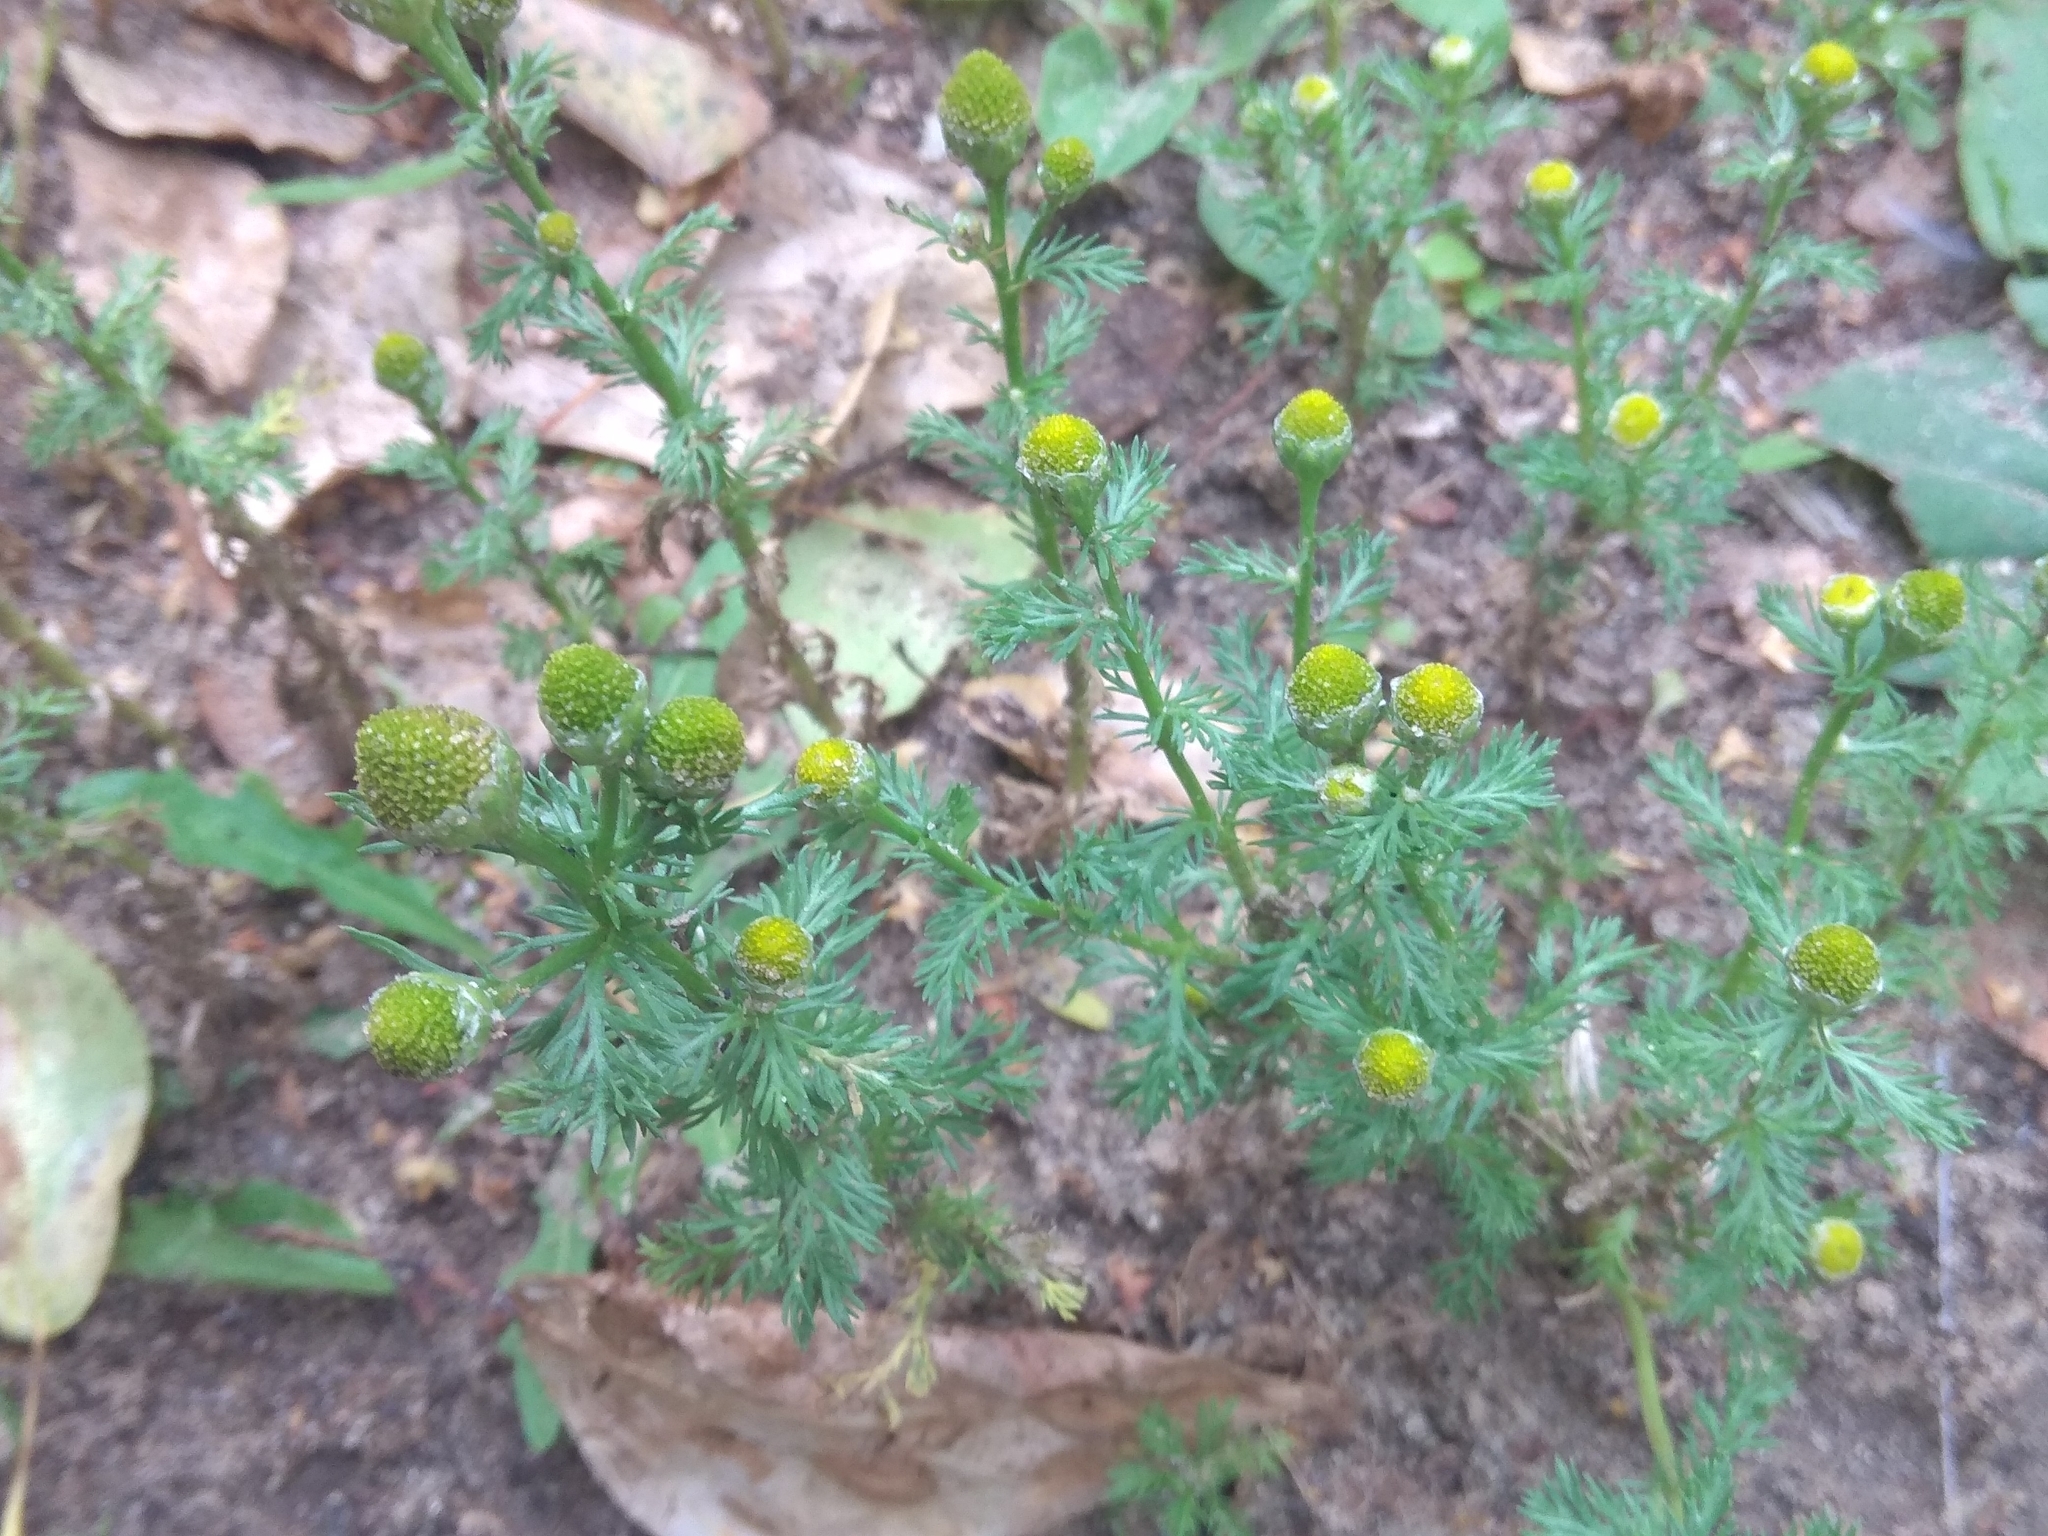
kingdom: Plantae
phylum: Tracheophyta
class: Magnoliopsida
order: Asterales
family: Asteraceae
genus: Matricaria
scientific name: Matricaria discoidea
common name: Disc mayweed
